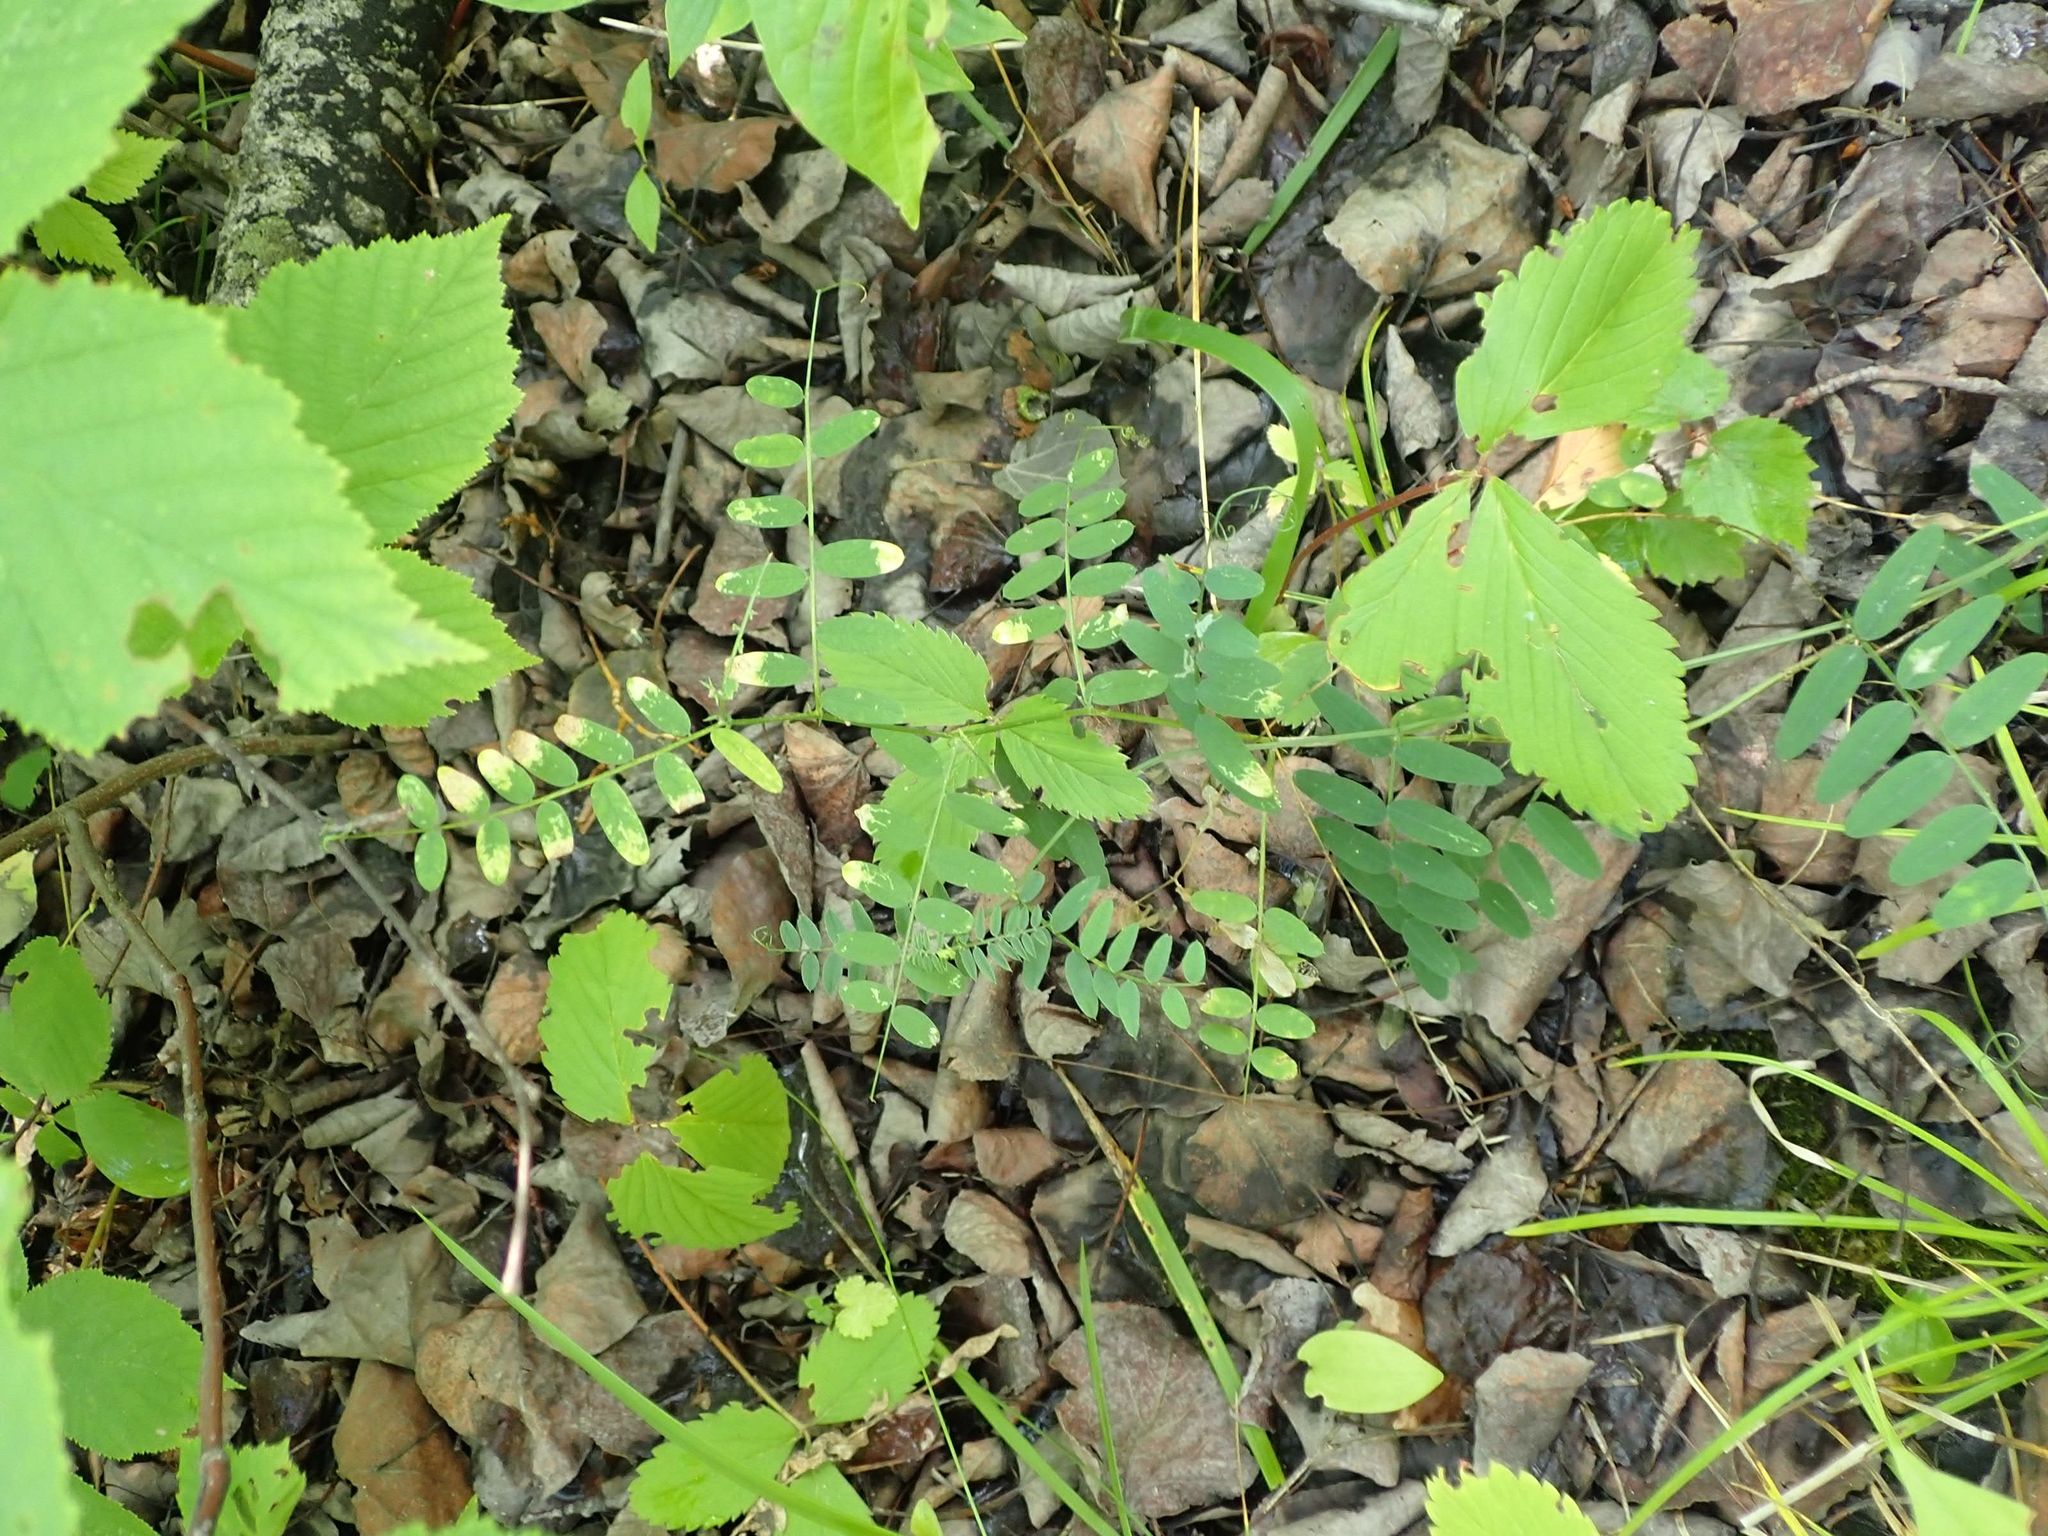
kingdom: Plantae
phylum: Tracheophyta
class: Magnoliopsida
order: Fabales
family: Fabaceae
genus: Vicia
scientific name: Vicia americana
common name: American vetch
